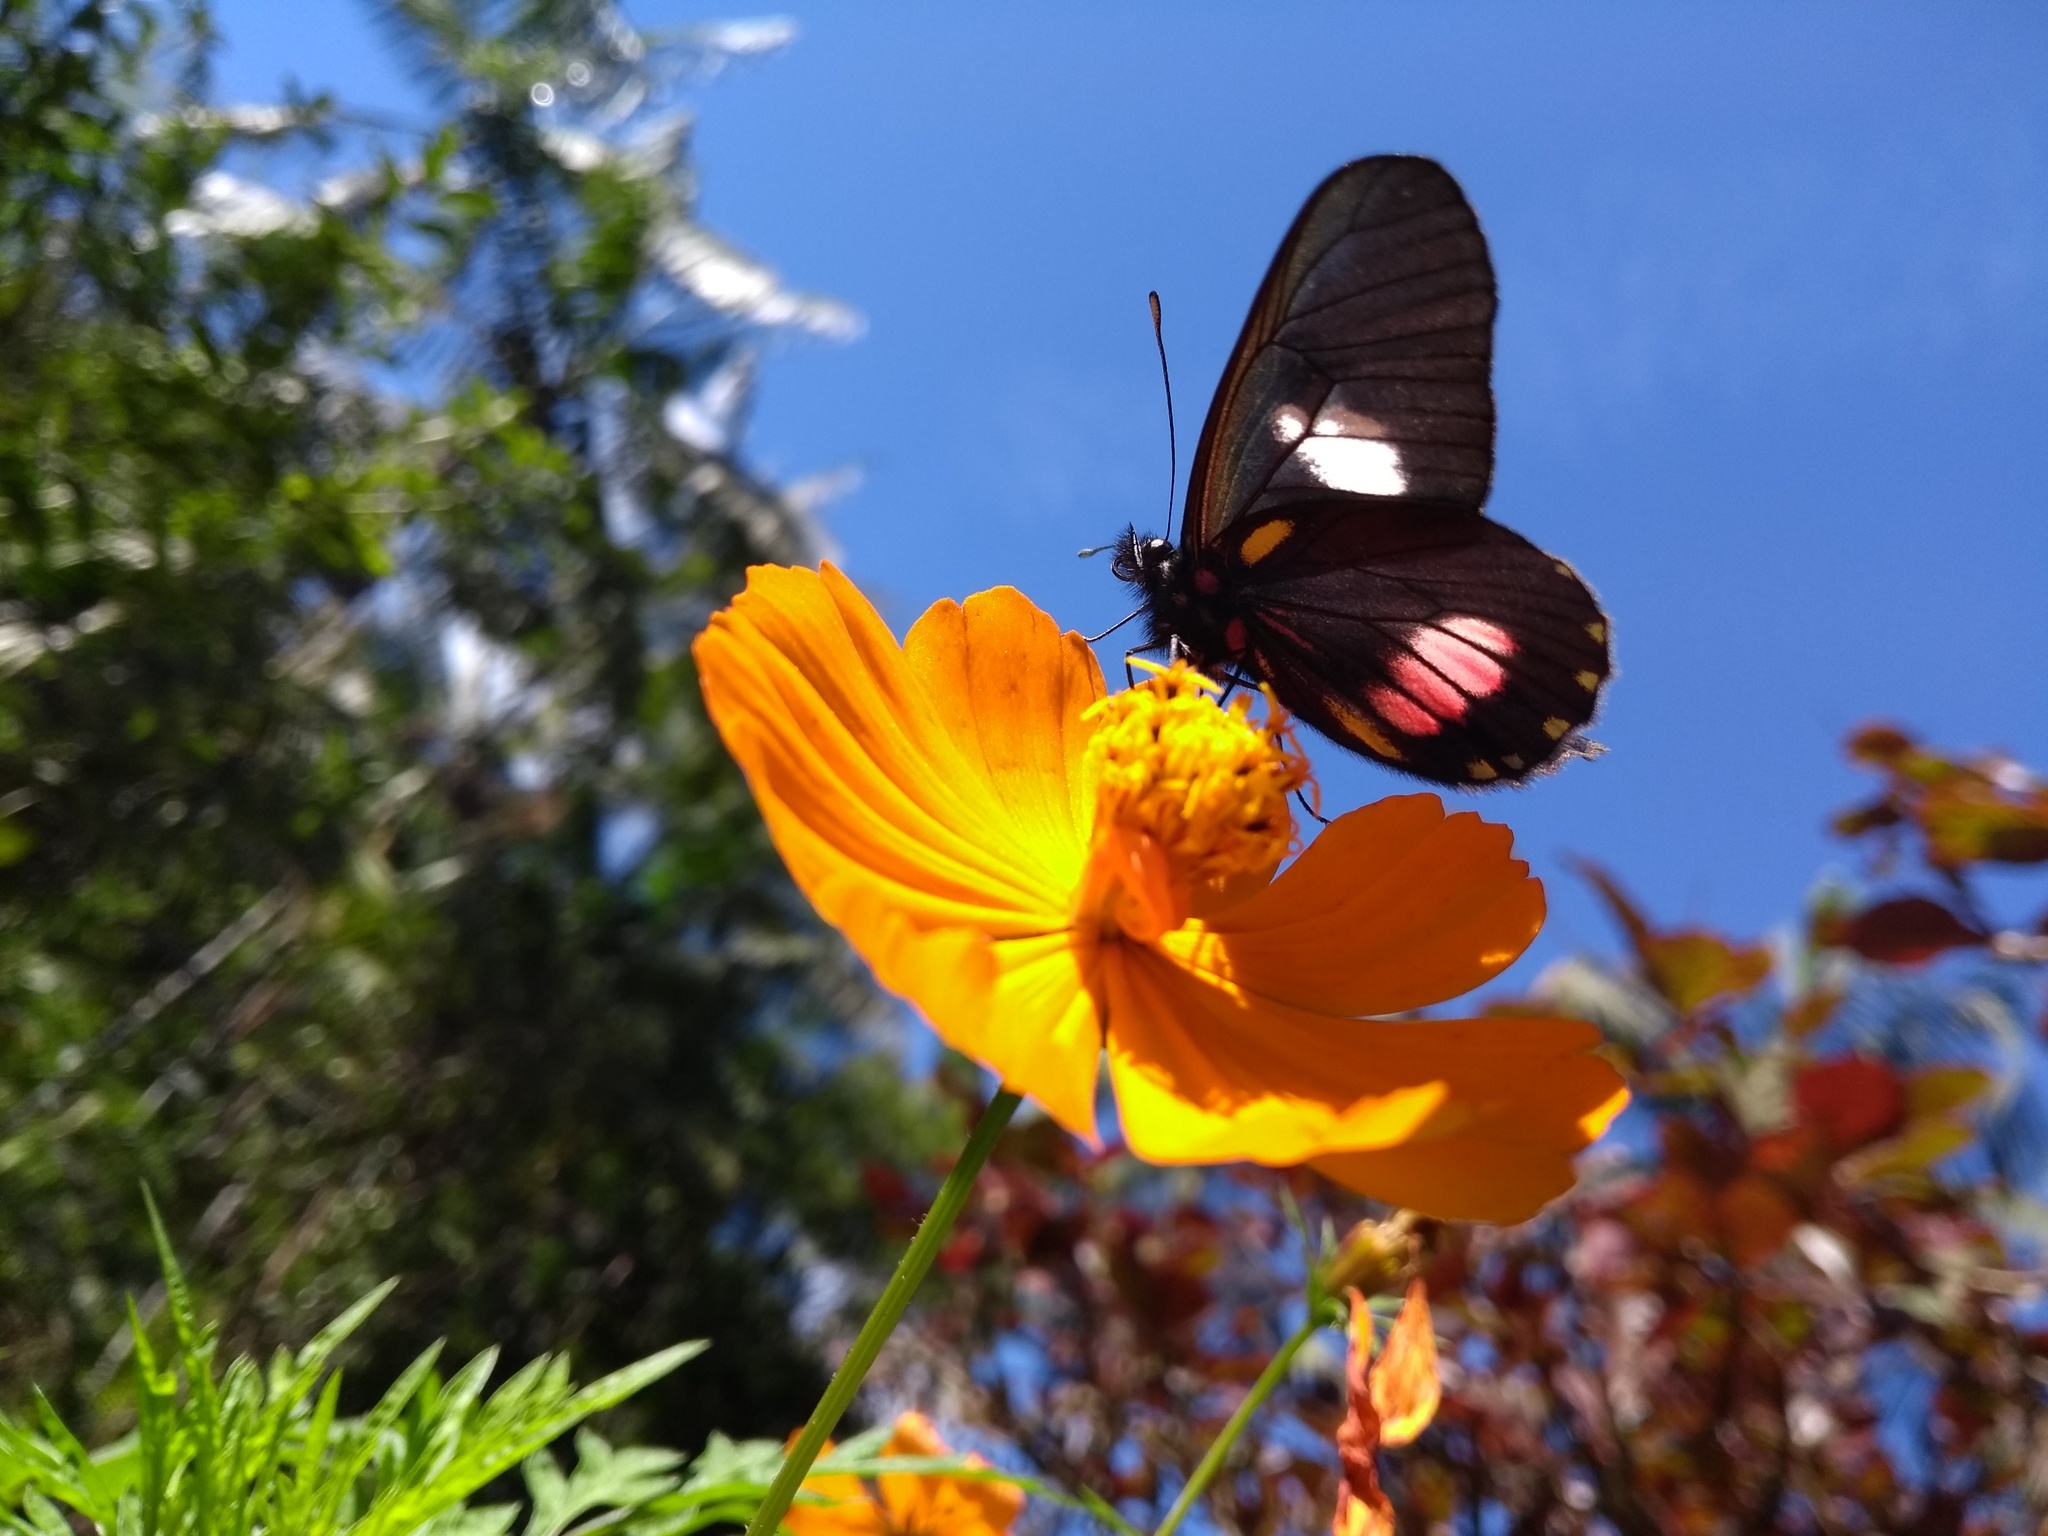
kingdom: Animalia
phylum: Arthropoda
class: Insecta
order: Lepidoptera
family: Pieridae
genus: Archonias
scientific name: Archonias brassolis
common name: Cattleheart white
